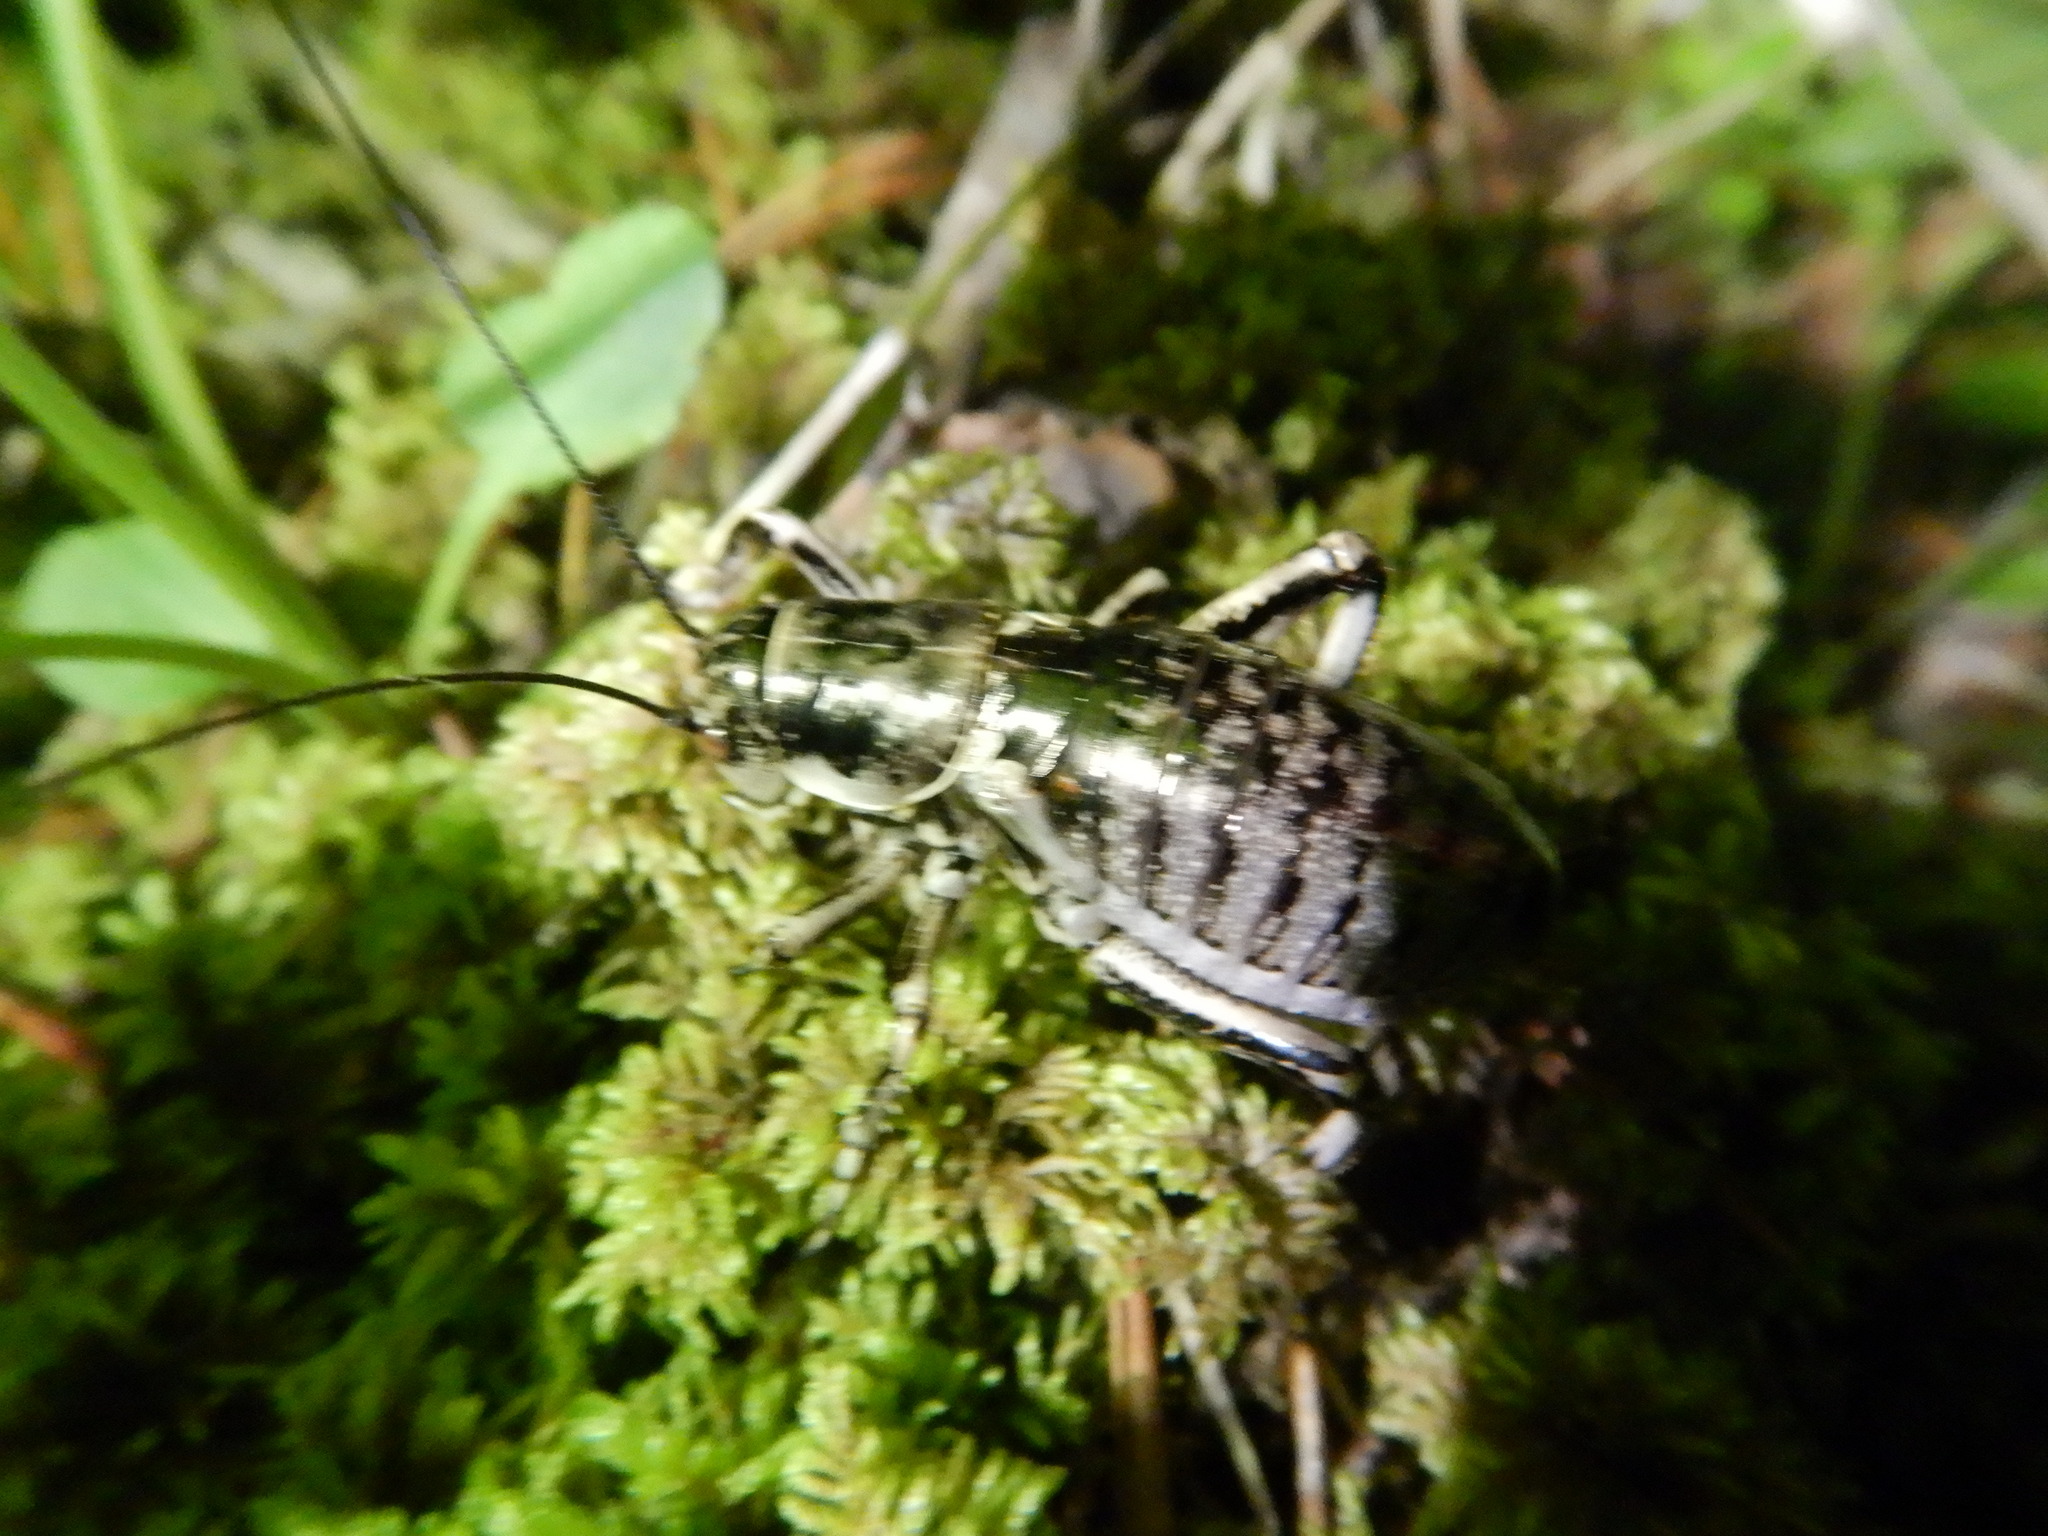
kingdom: Animalia
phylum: Arthropoda
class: Insecta
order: Orthoptera
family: Prophalangopsidae
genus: Cyphoderris
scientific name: Cyphoderris monstrosa
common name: Great grig
